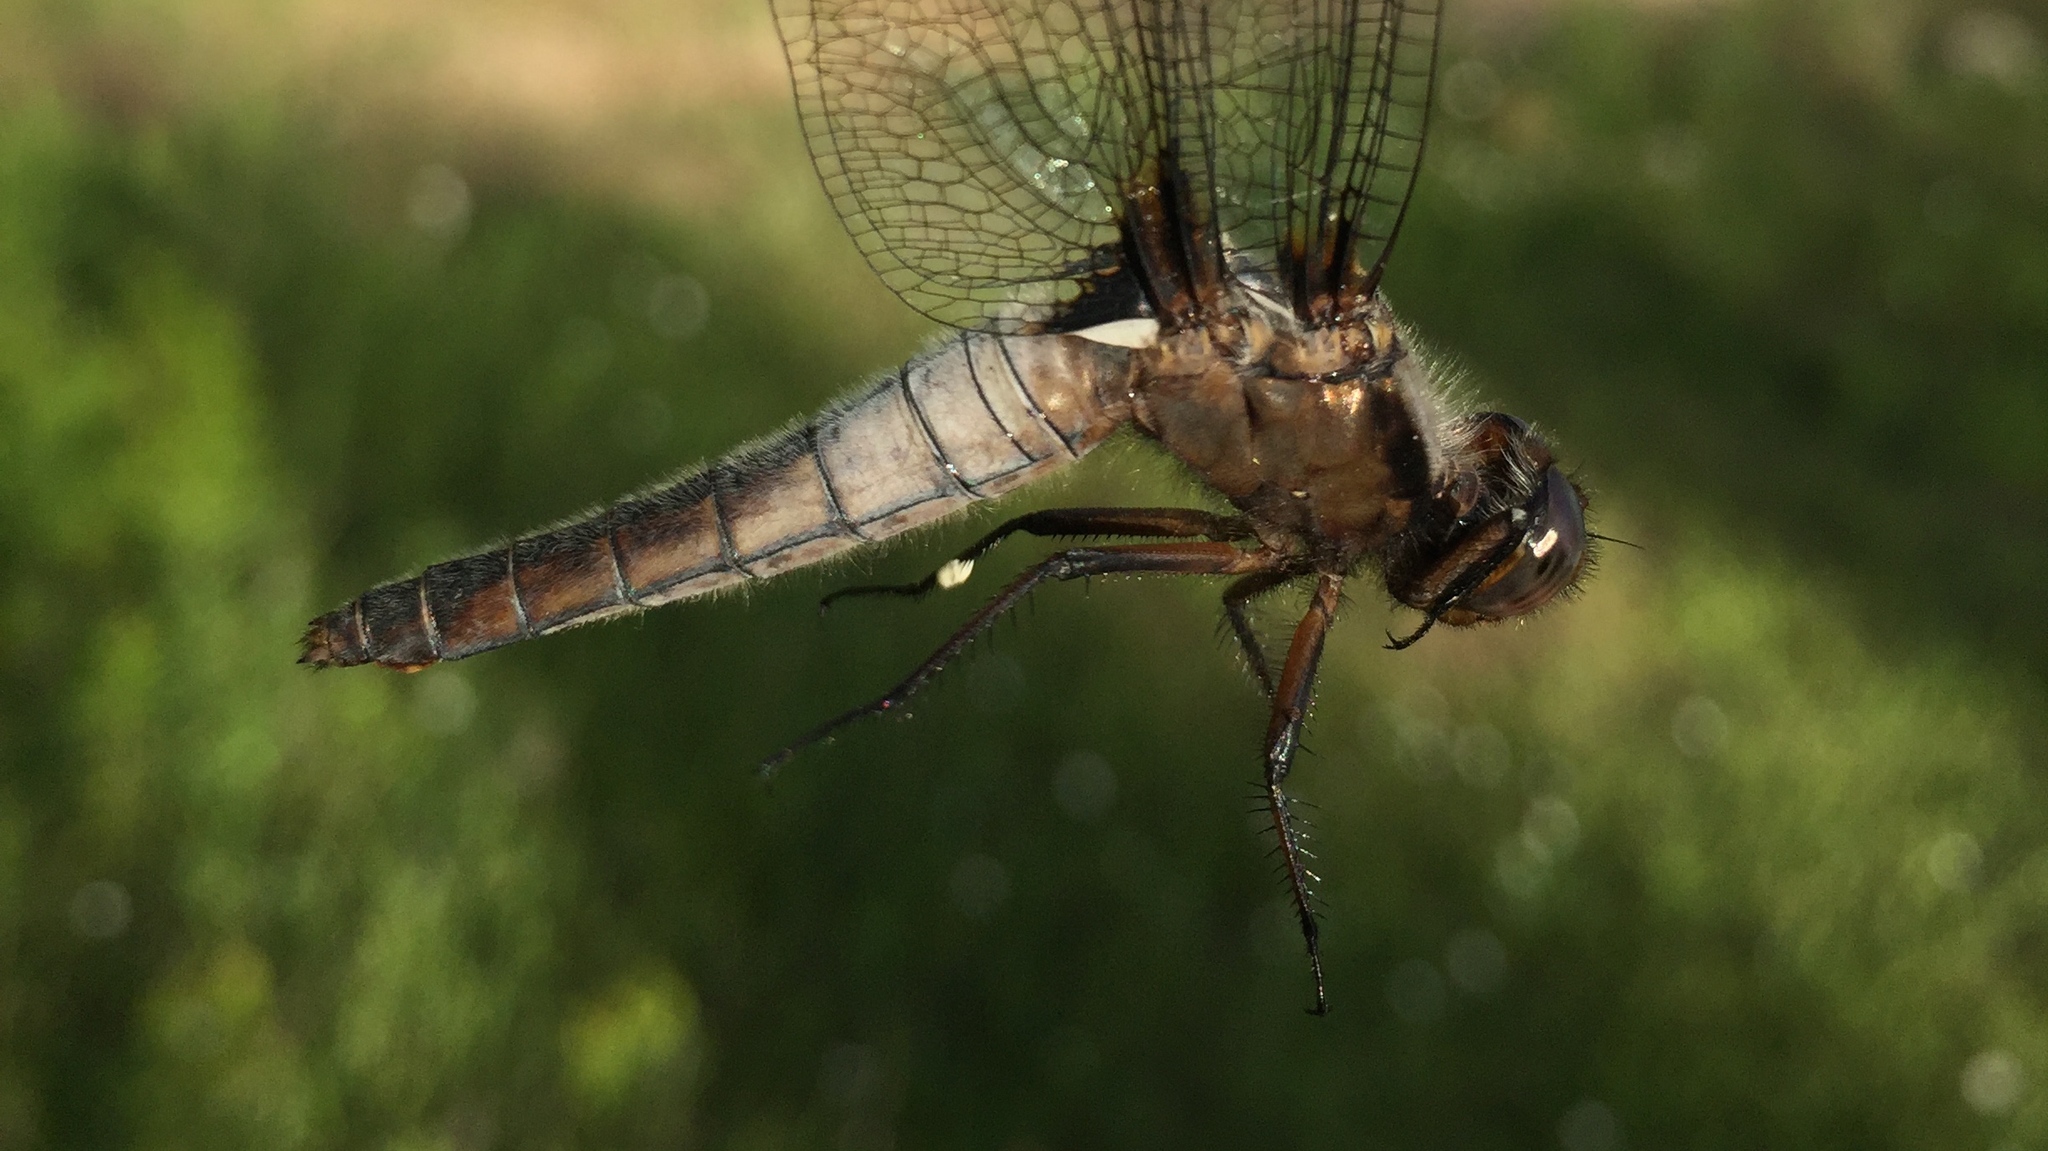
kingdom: Animalia
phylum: Arthropoda
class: Insecta
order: Odonata
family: Libellulidae
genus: Ladona
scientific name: Ladona julia
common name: Chalk-fronted corporal
